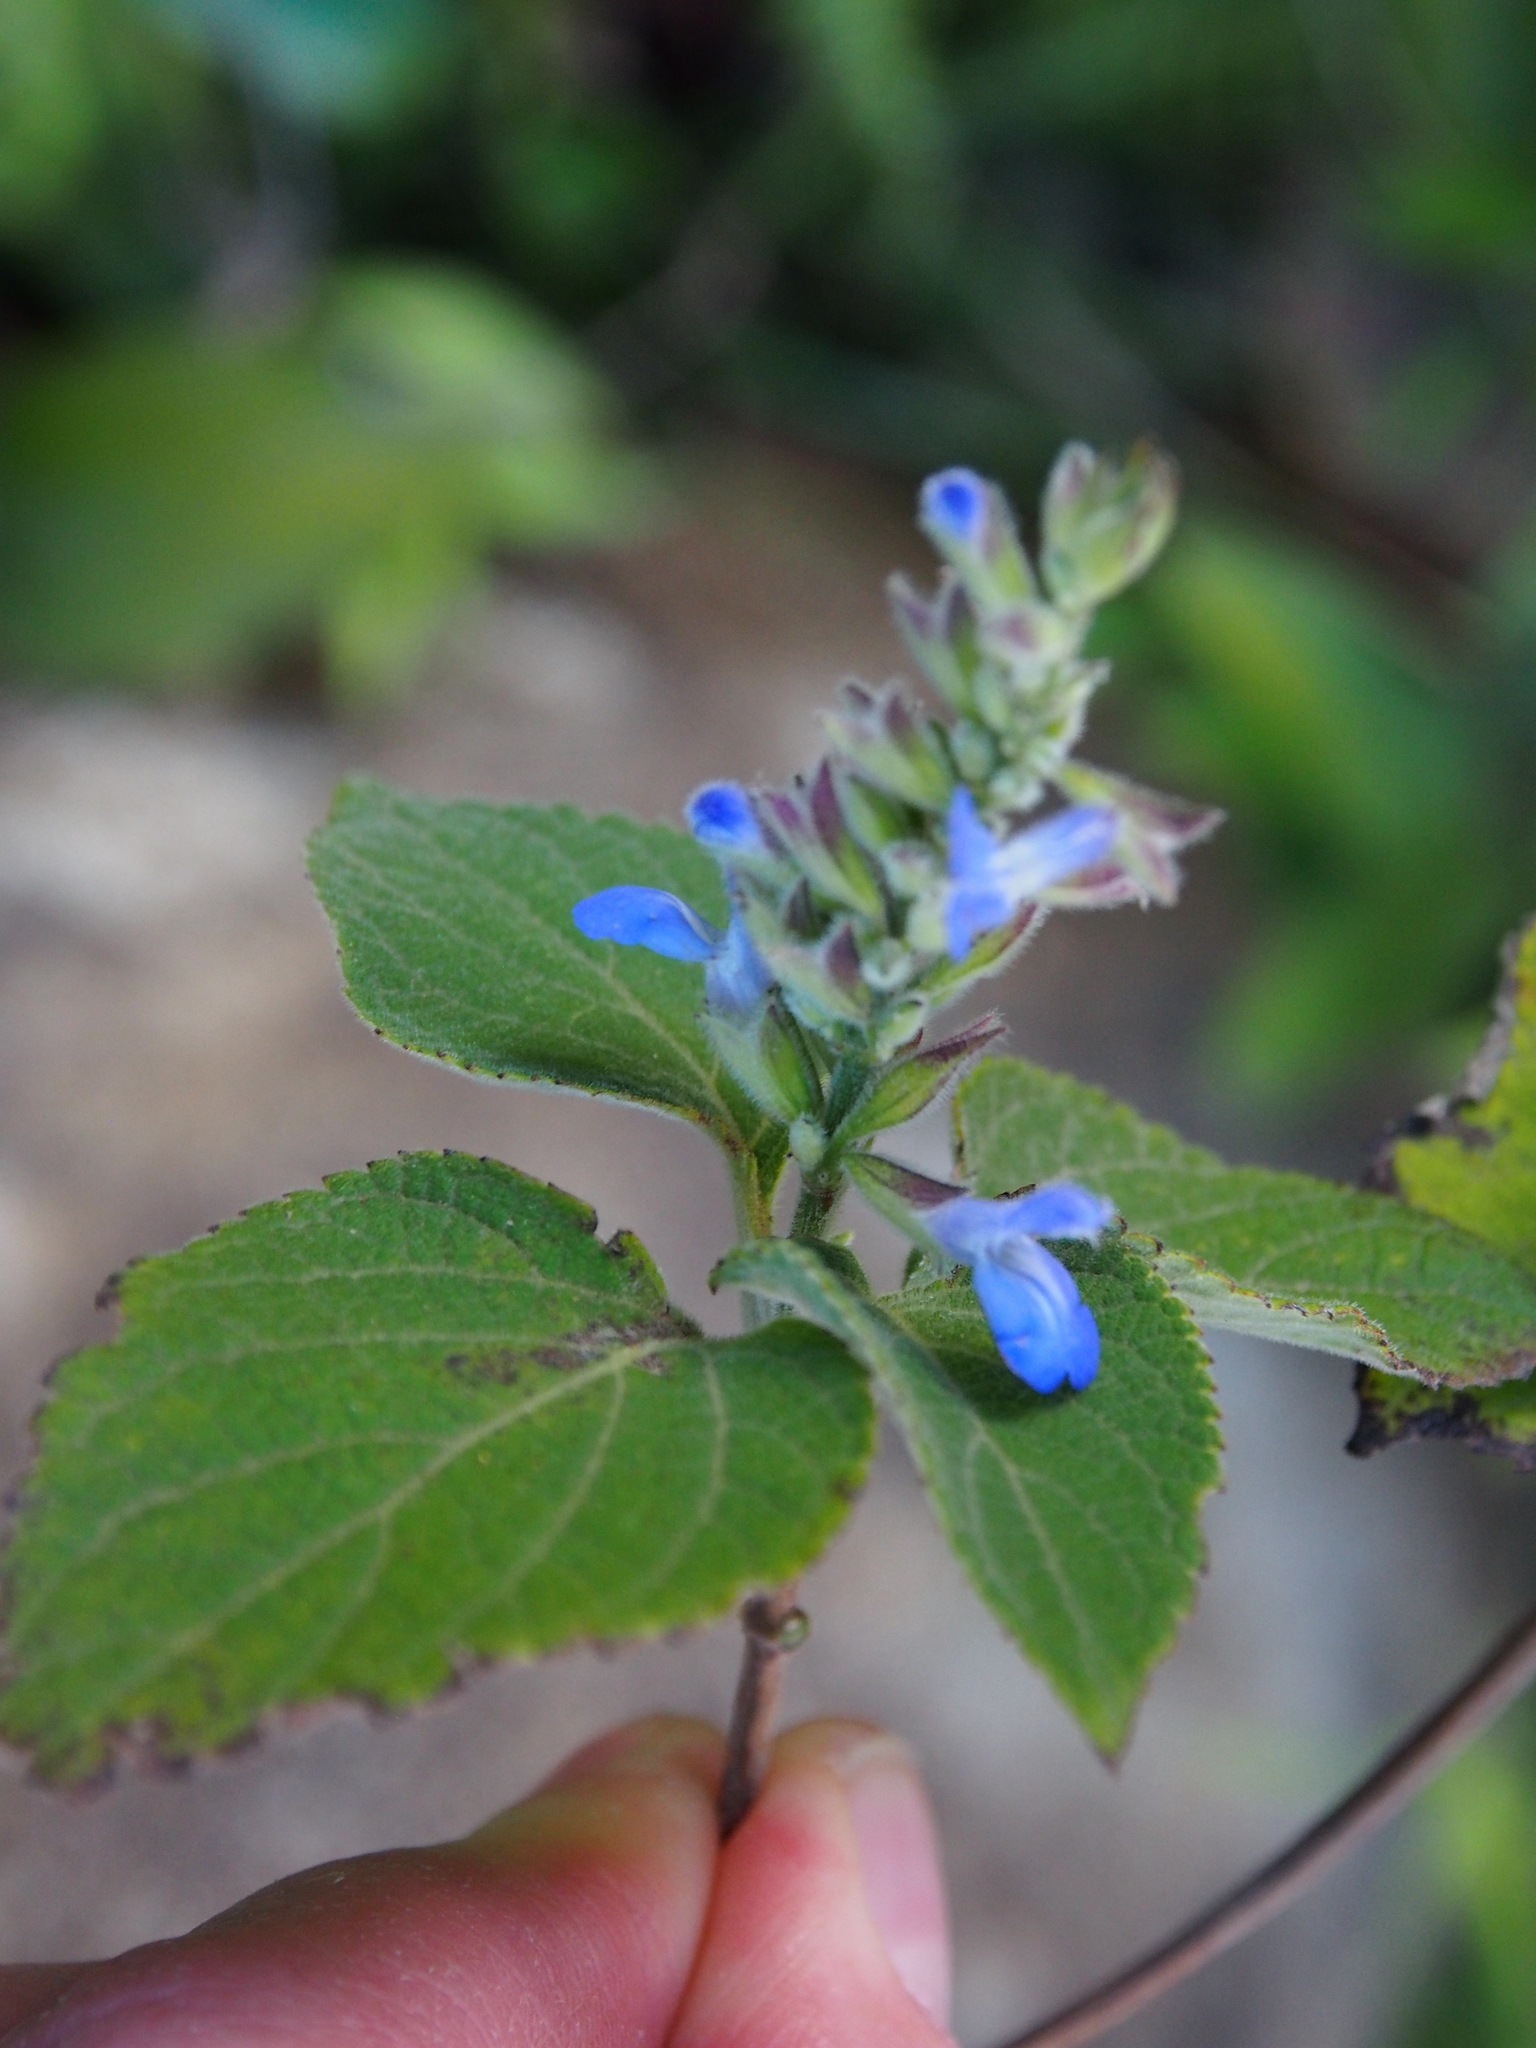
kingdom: Plantae
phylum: Tracheophyta
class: Magnoliopsida
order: Lamiales
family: Lamiaceae
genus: Salvia
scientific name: Salvia colonica
